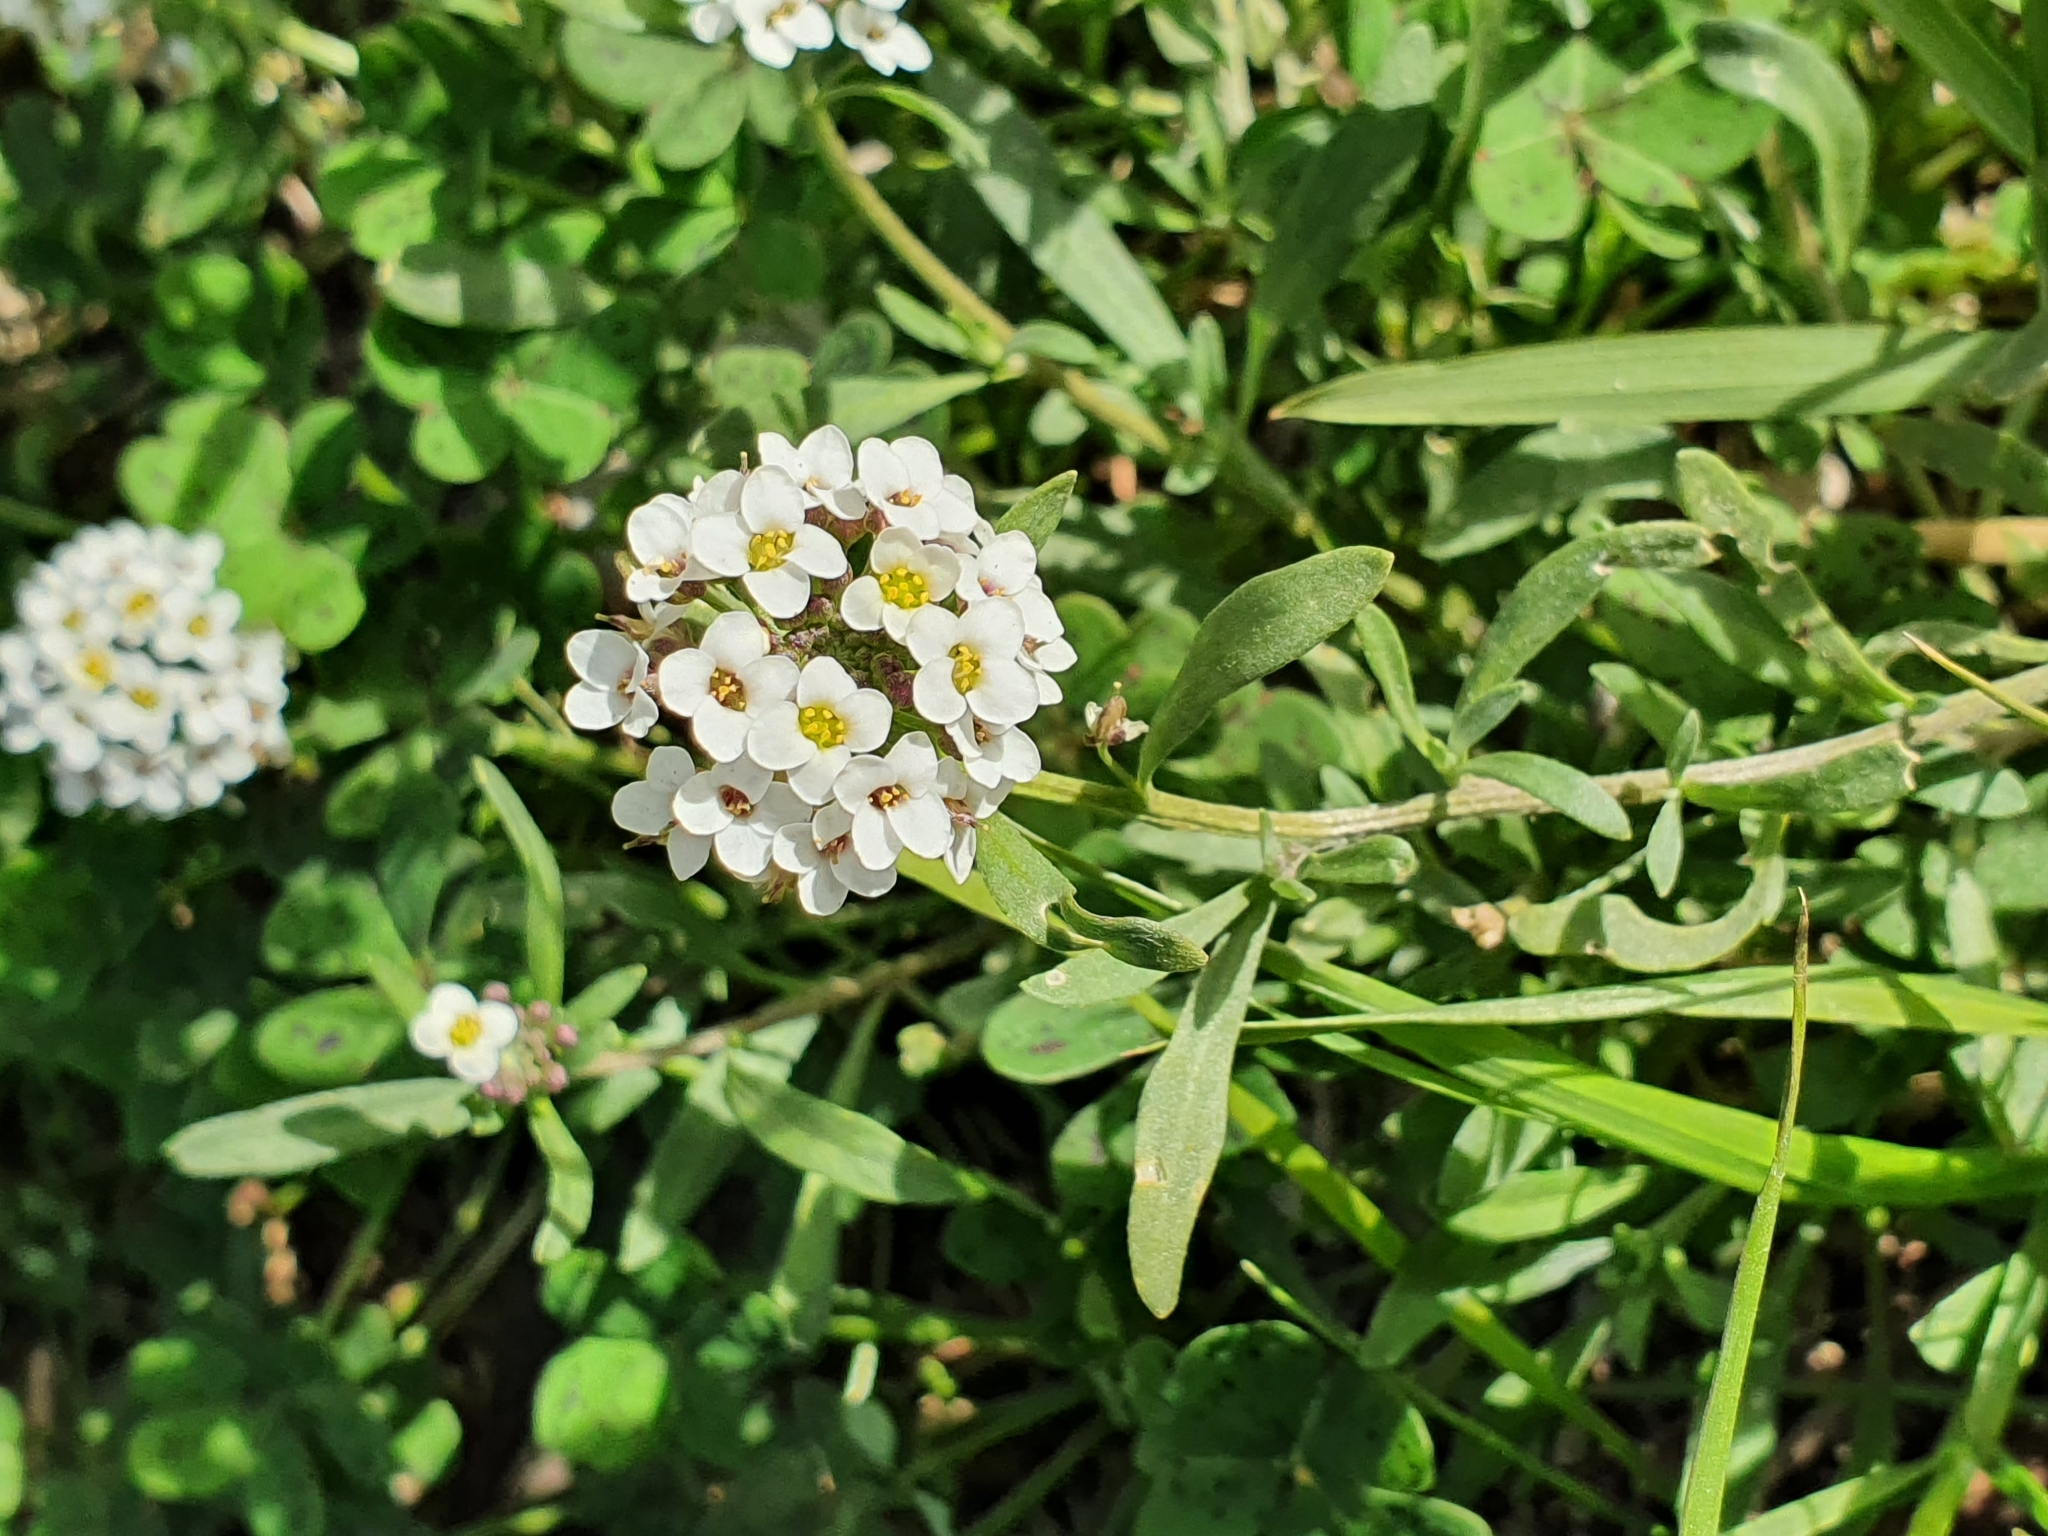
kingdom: Plantae
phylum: Tracheophyta
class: Magnoliopsida
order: Brassicales
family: Brassicaceae
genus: Lobularia
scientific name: Lobularia maritima
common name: Sweet alison
